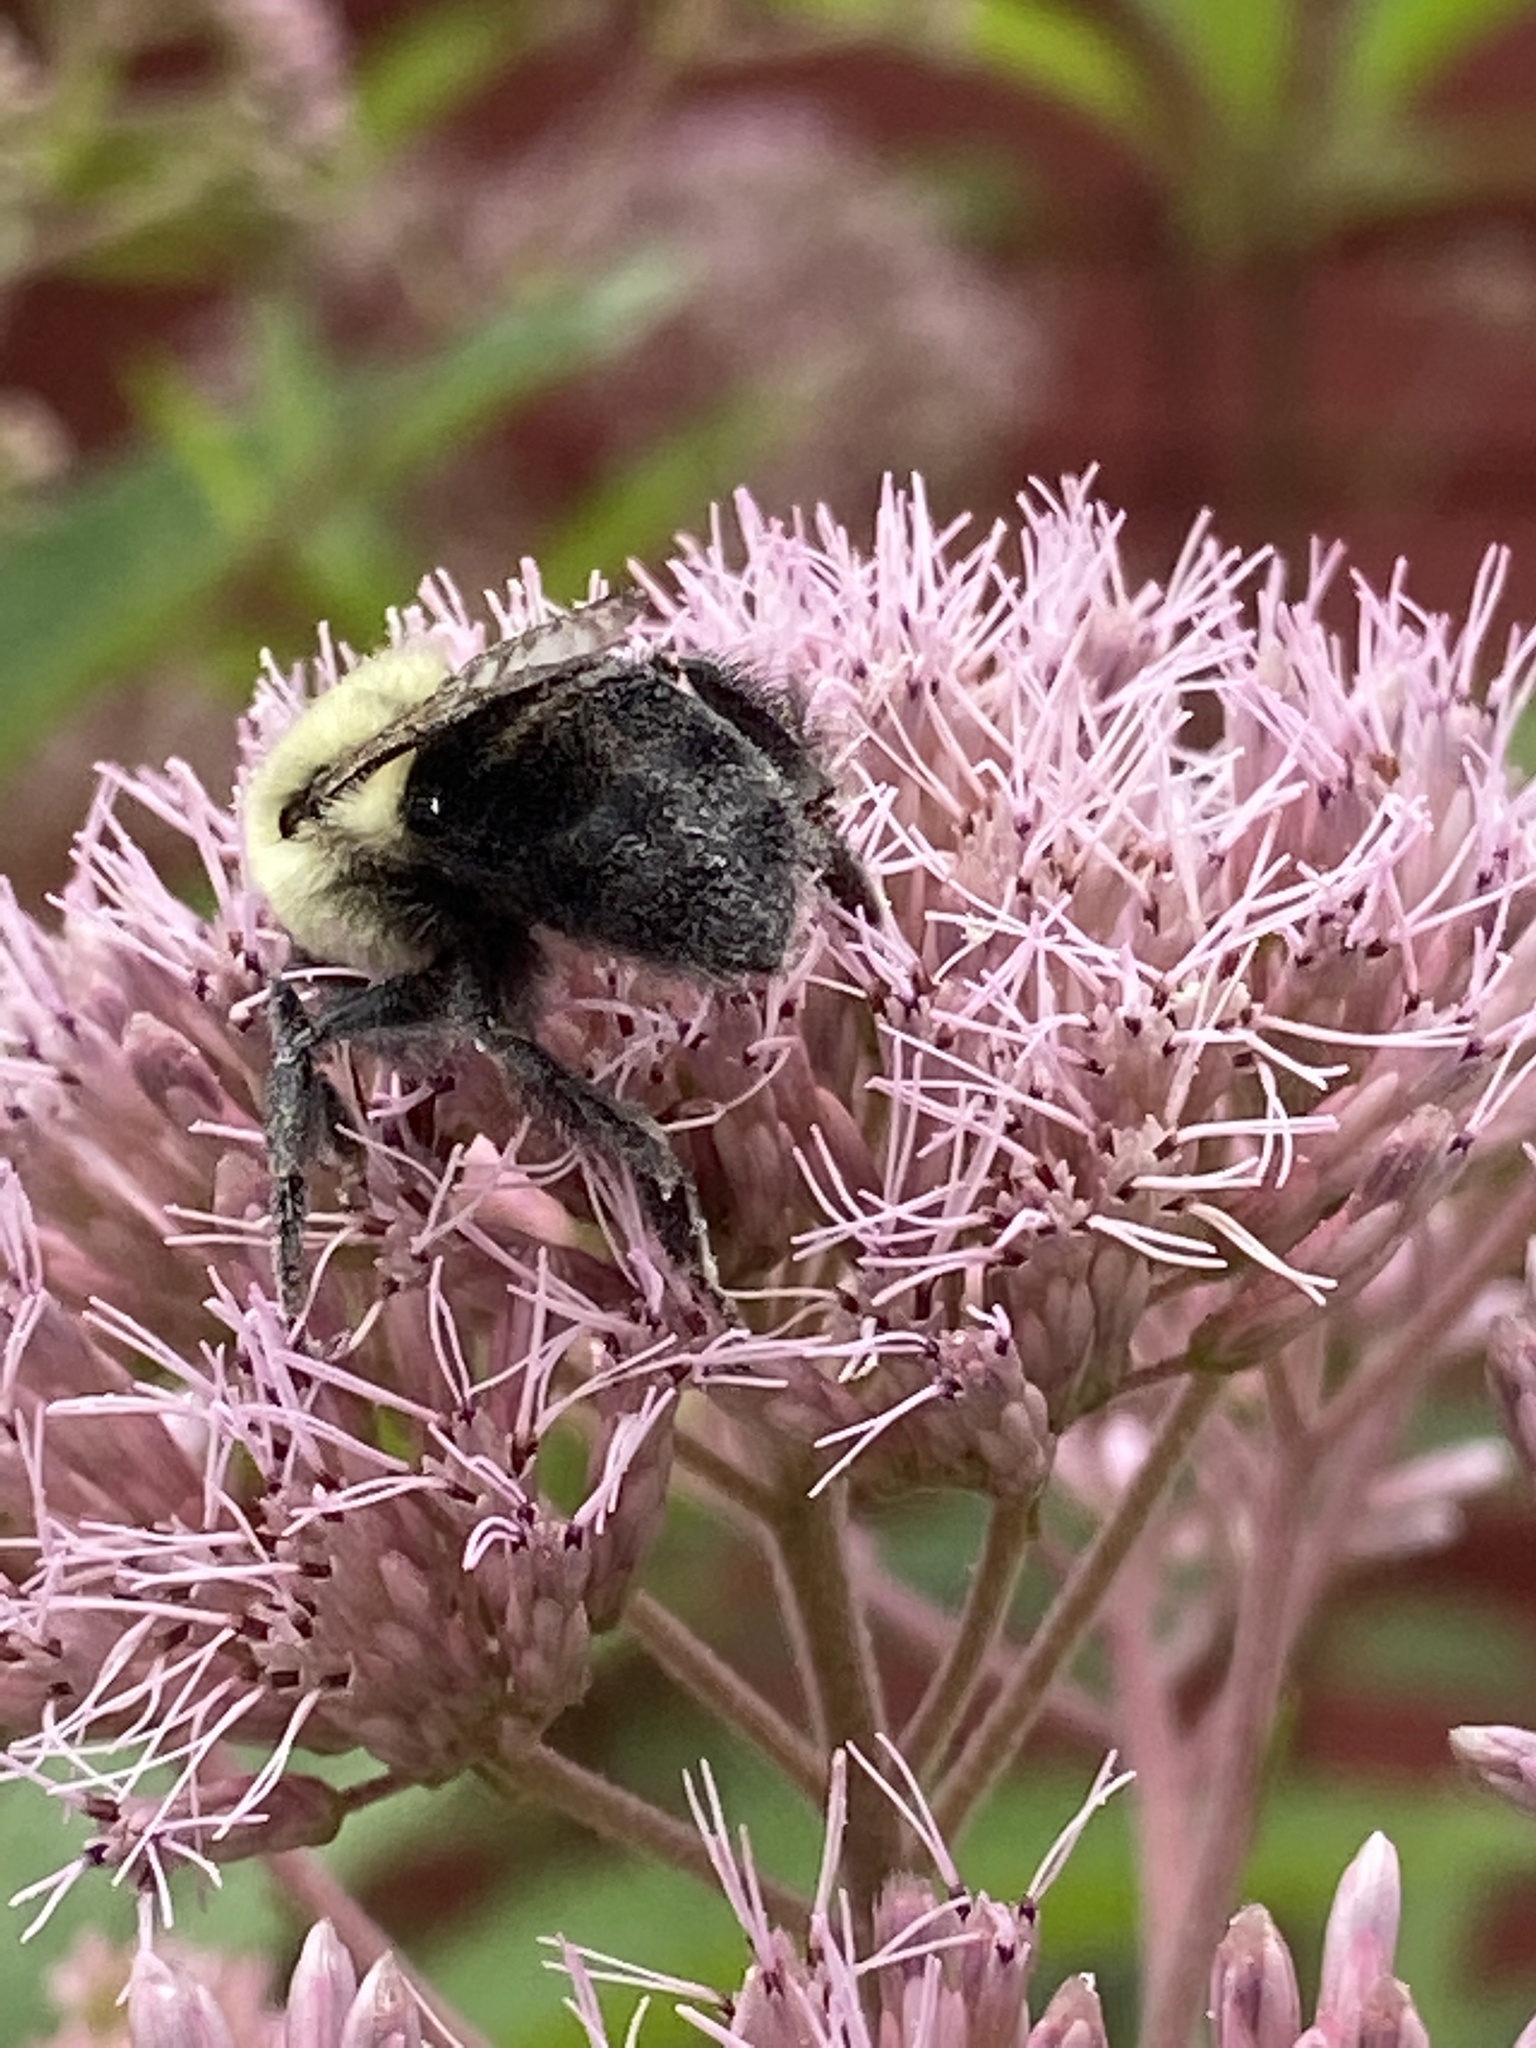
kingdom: Animalia
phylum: Arthropoda
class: Insecta
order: Hymenoptera
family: Apidae
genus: Bombus
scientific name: Bombus impatiens
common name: Common eastern bumble bee
